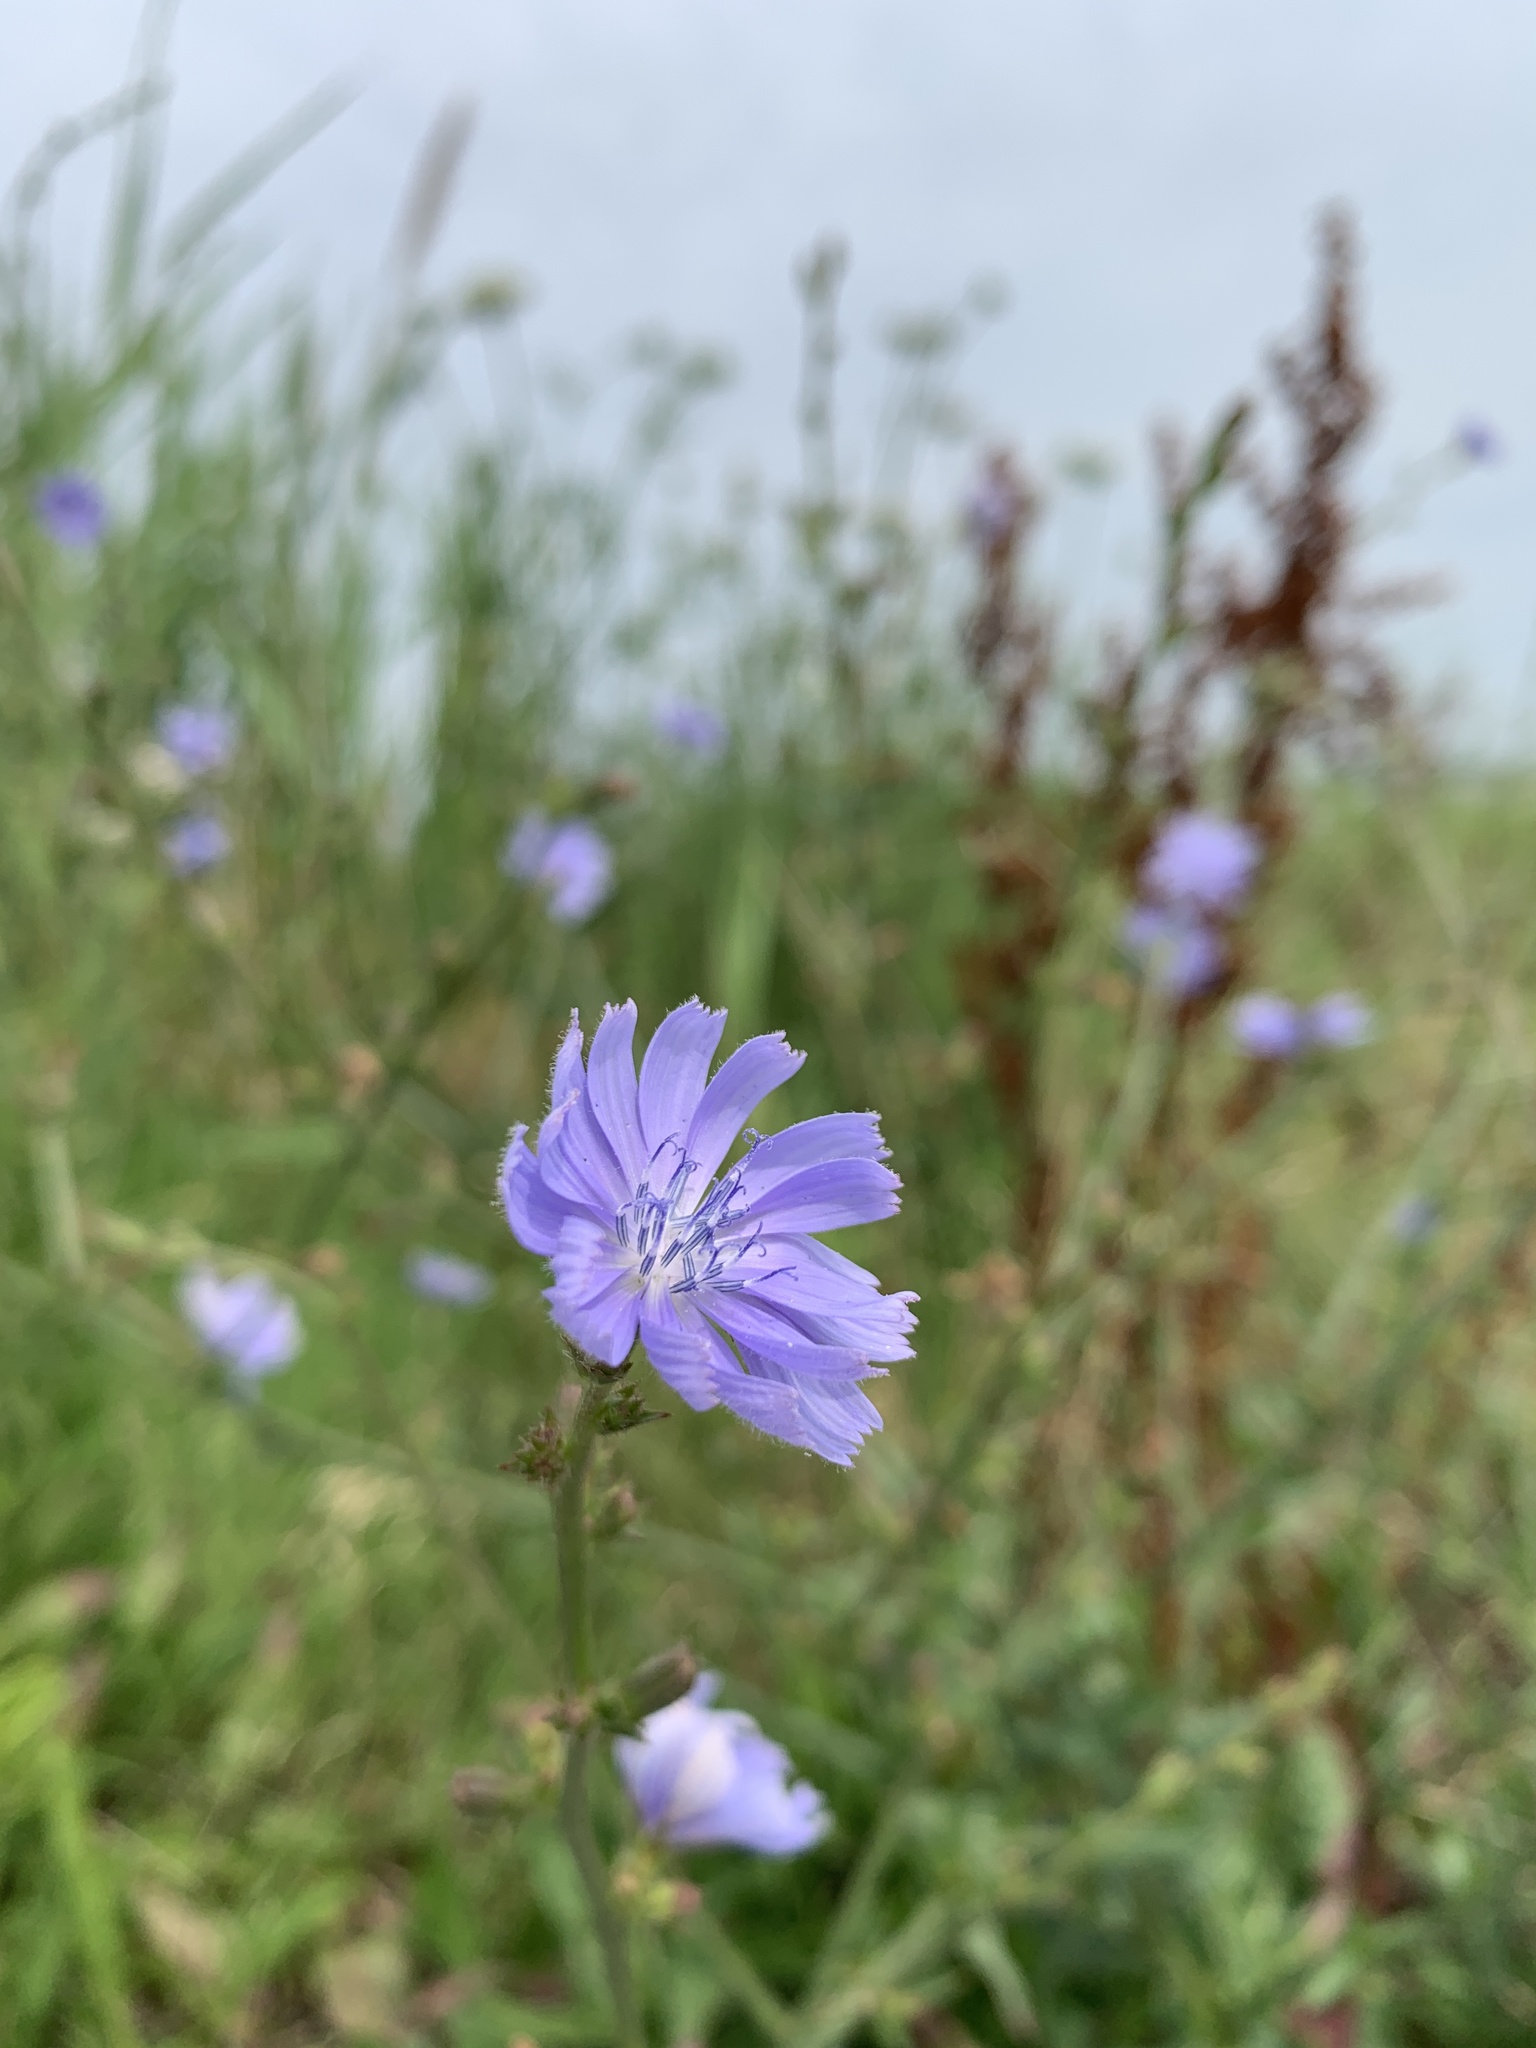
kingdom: Plantae
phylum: Tracheophyta
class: Magnoliopsida
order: Asterales
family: Asteraceae
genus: Cichorium
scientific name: Cichorium intybus
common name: Chicory
